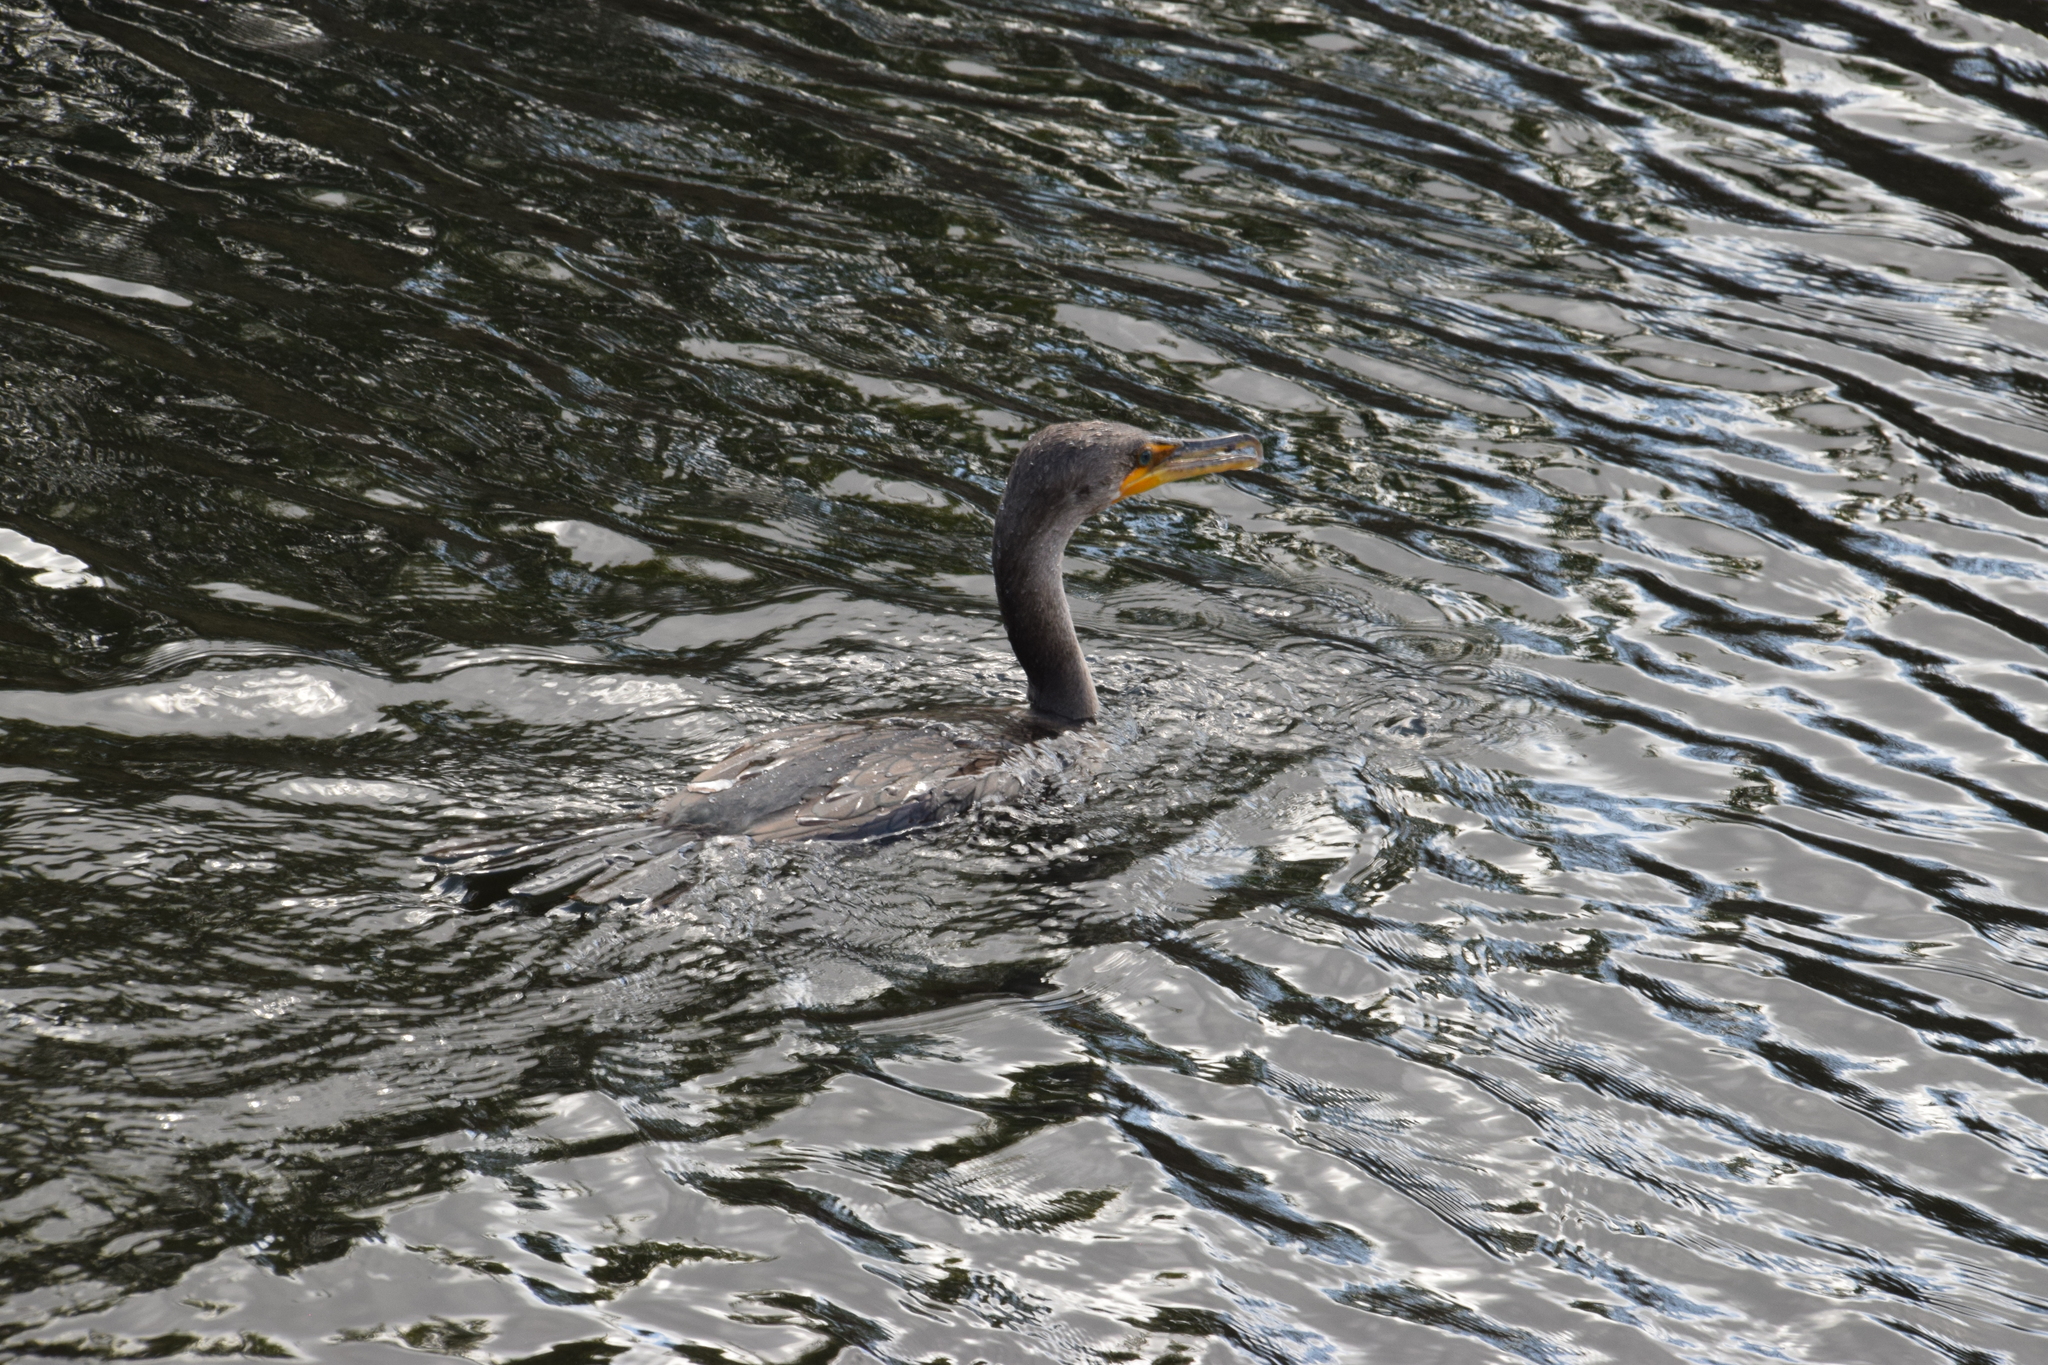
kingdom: Animalia
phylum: Chordata
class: Aves
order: Suliformes
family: Phalacrocoracidae
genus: Phalacrocorax
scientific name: Phalacrocorax auritus
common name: Double-crested cormorant
